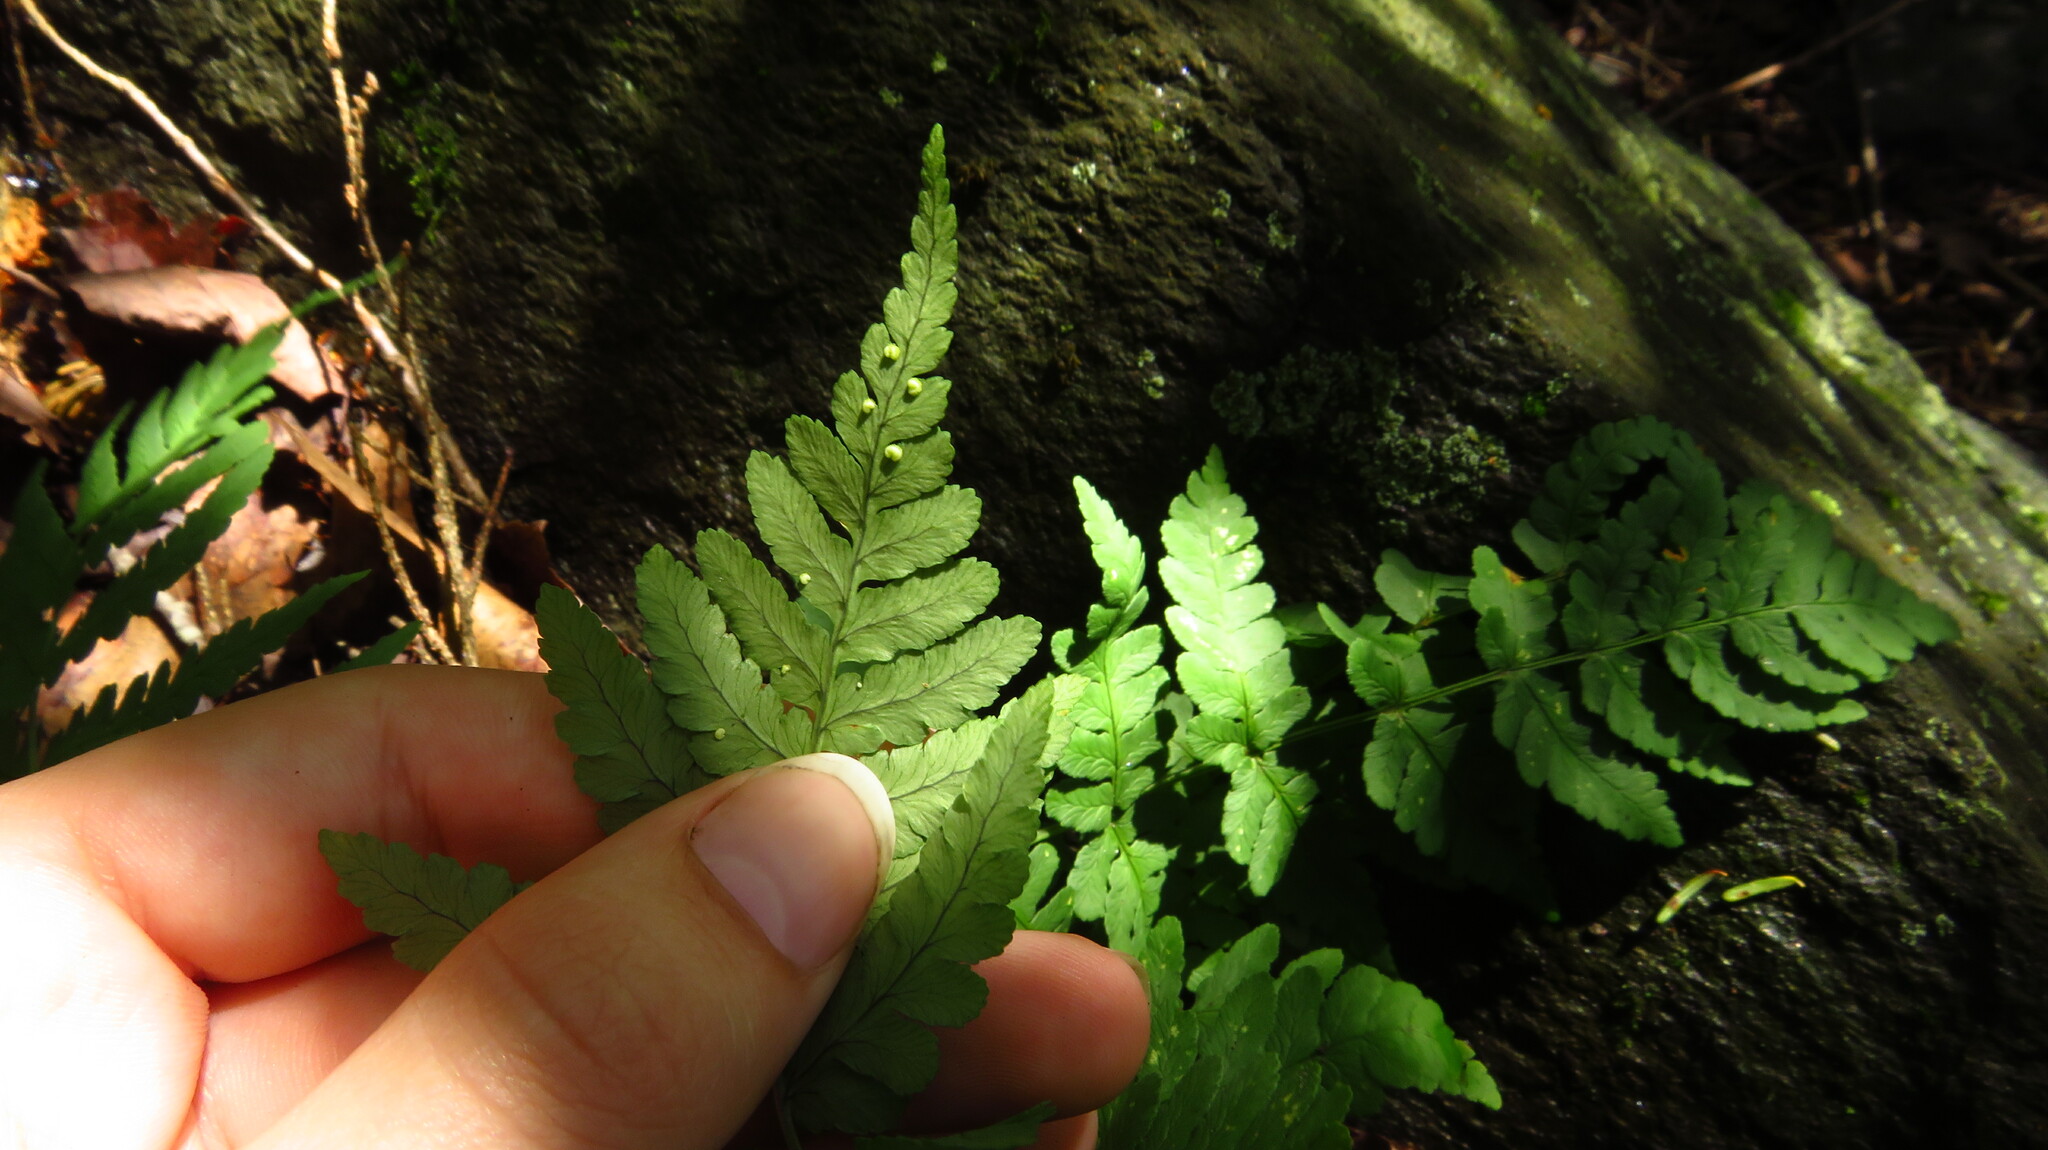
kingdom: Plantae
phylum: Tracheophyta
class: Polypodiopsida
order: Polypodiales
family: Dryopteridaceae
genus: Dryopteris
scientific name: Dryopteris marginalis
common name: Marginal wood fern
